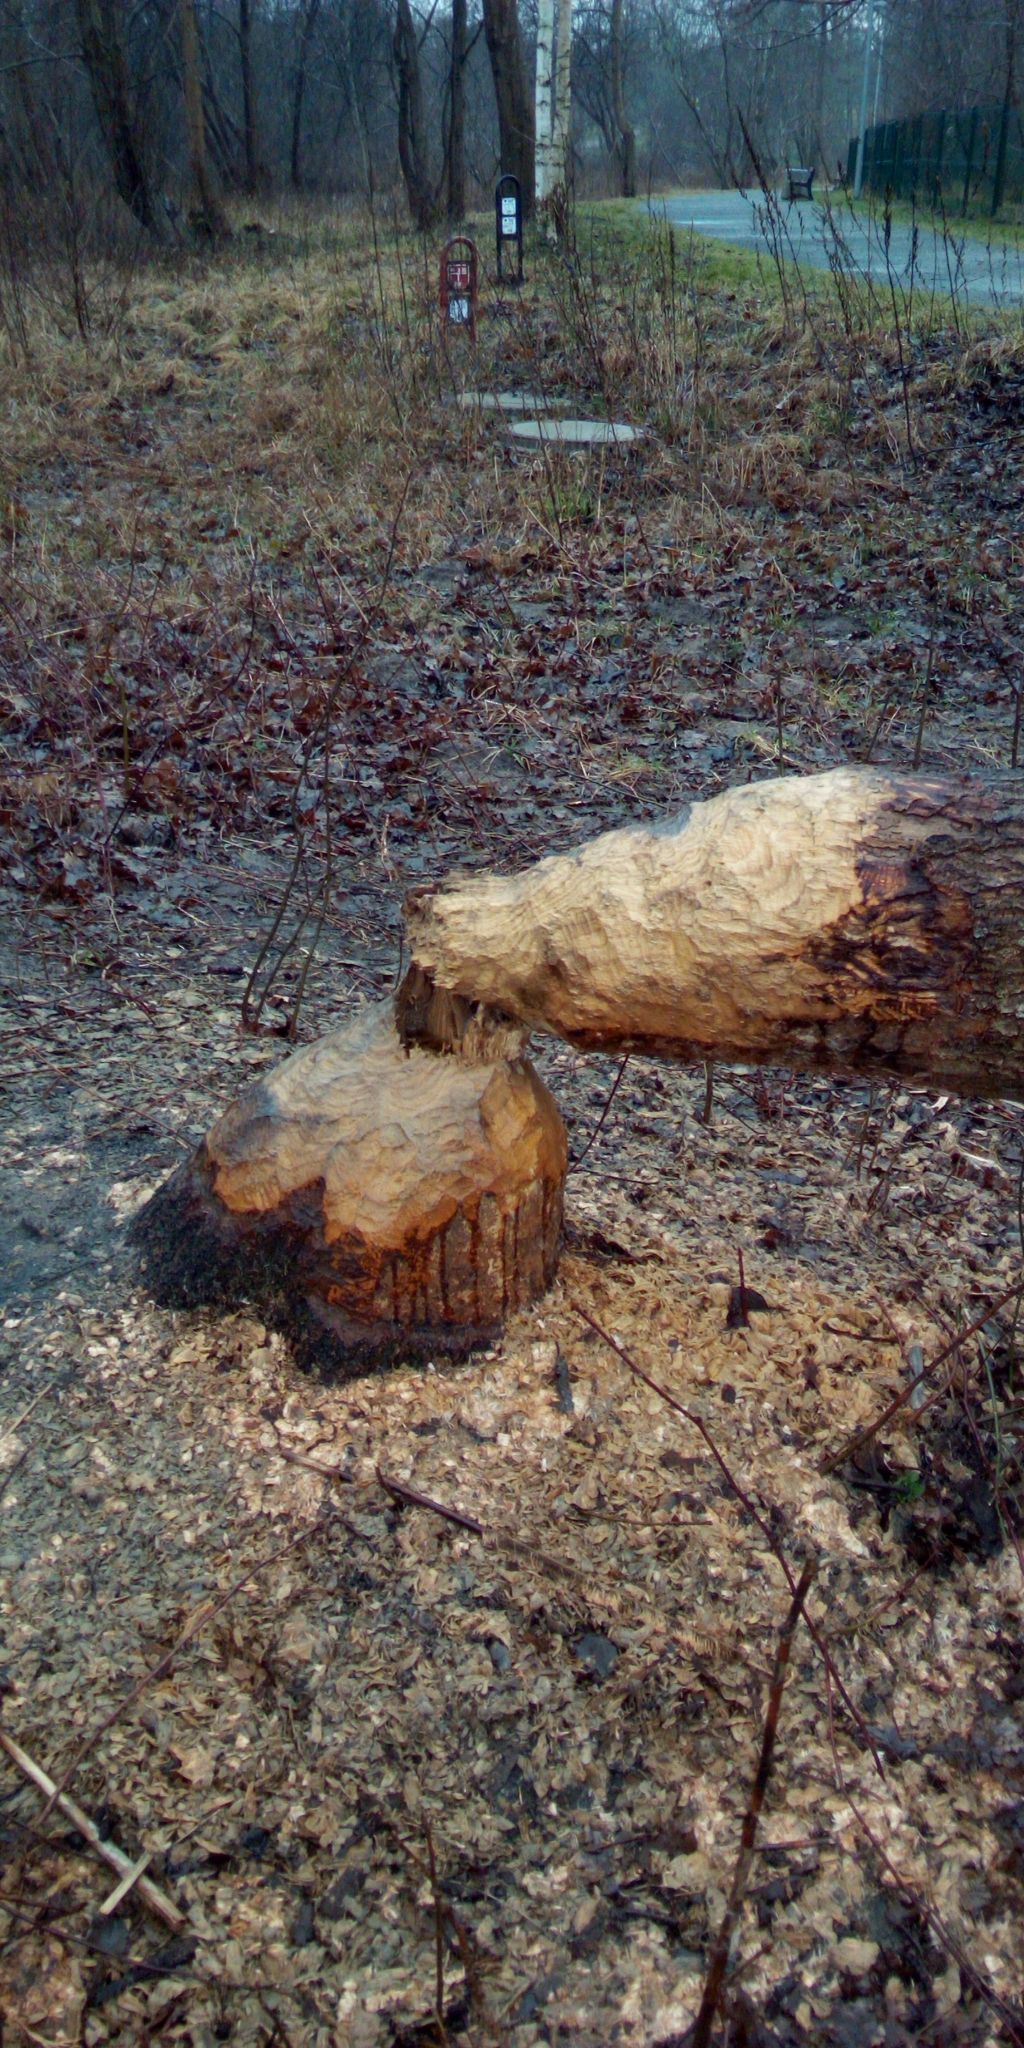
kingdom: Animalia
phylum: Chordata
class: Mammalia
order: Rodentia
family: Castoridae
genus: Castor
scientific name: Castor fiber
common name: Eurasian beaver
